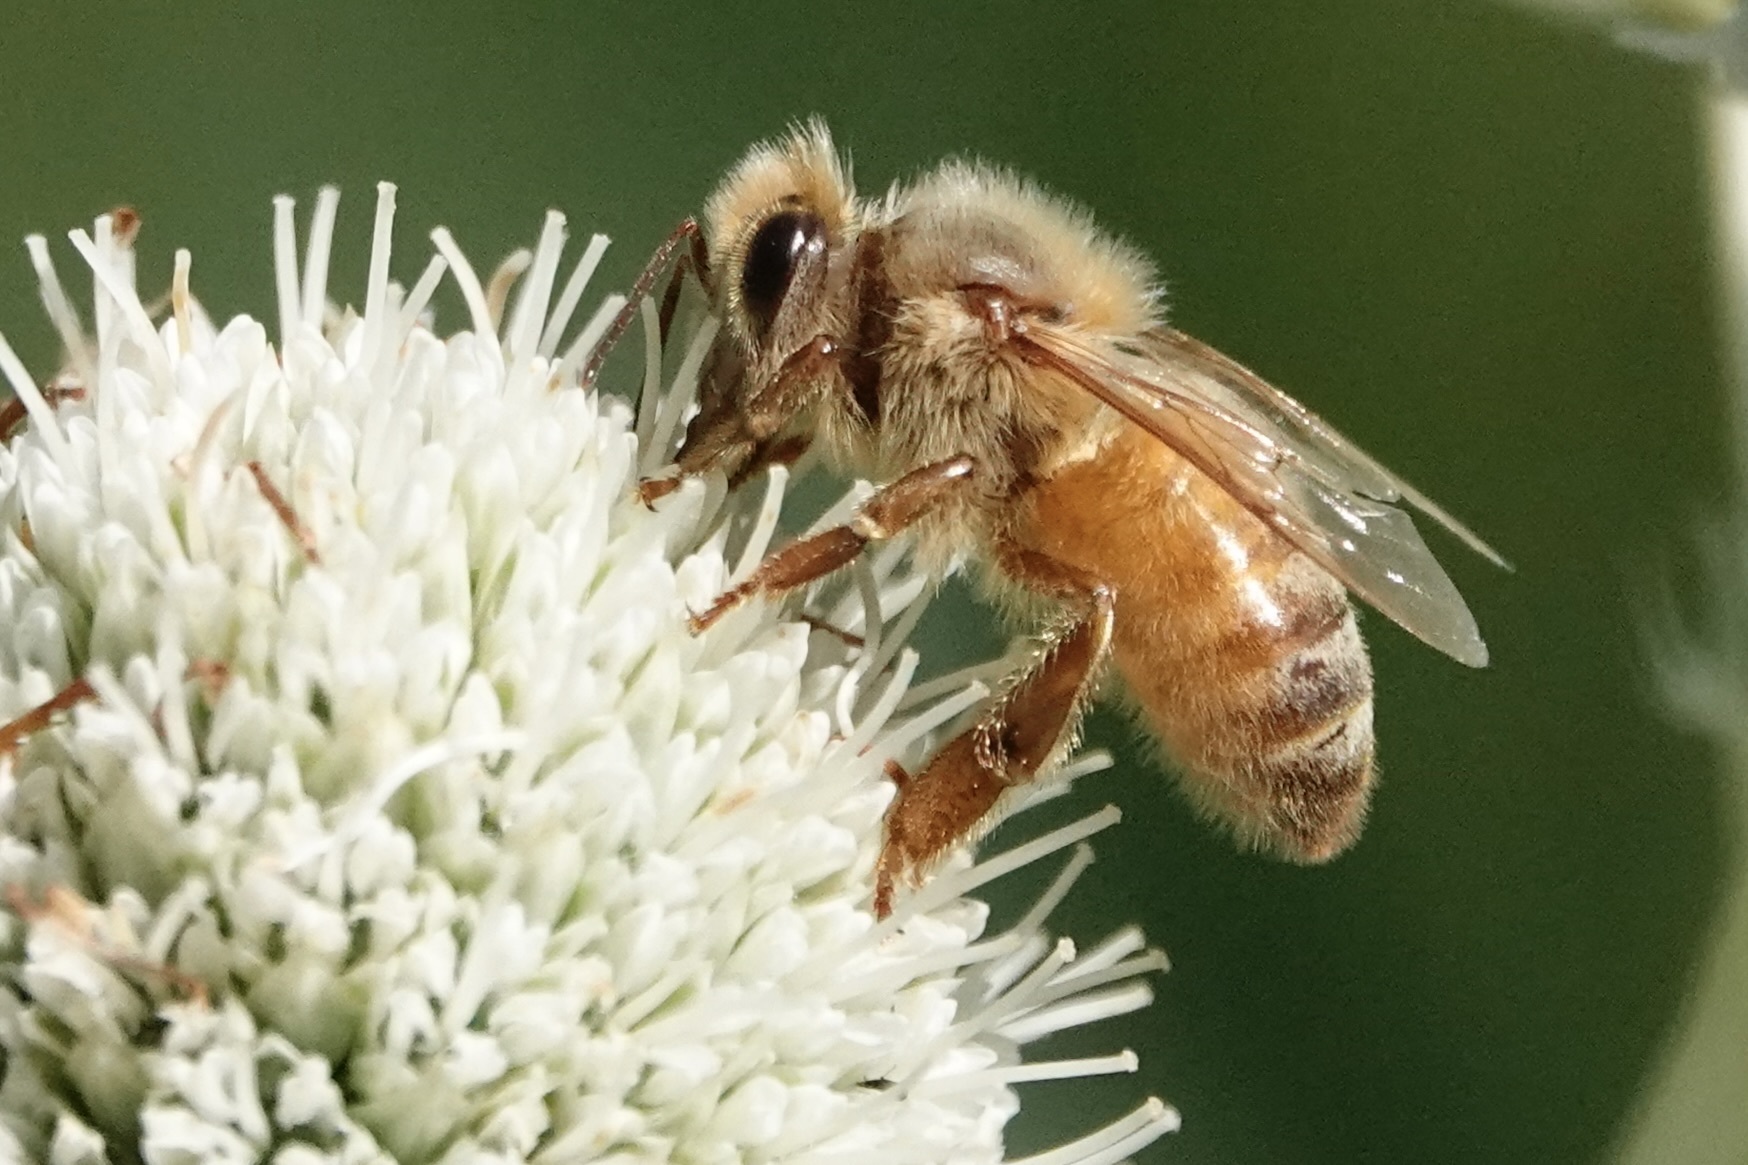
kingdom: Animalia
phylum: Arthropoda
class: Insecta
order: Hymenoptera
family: Apidae
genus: Apis
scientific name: Apis mellifera
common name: Honey bee
